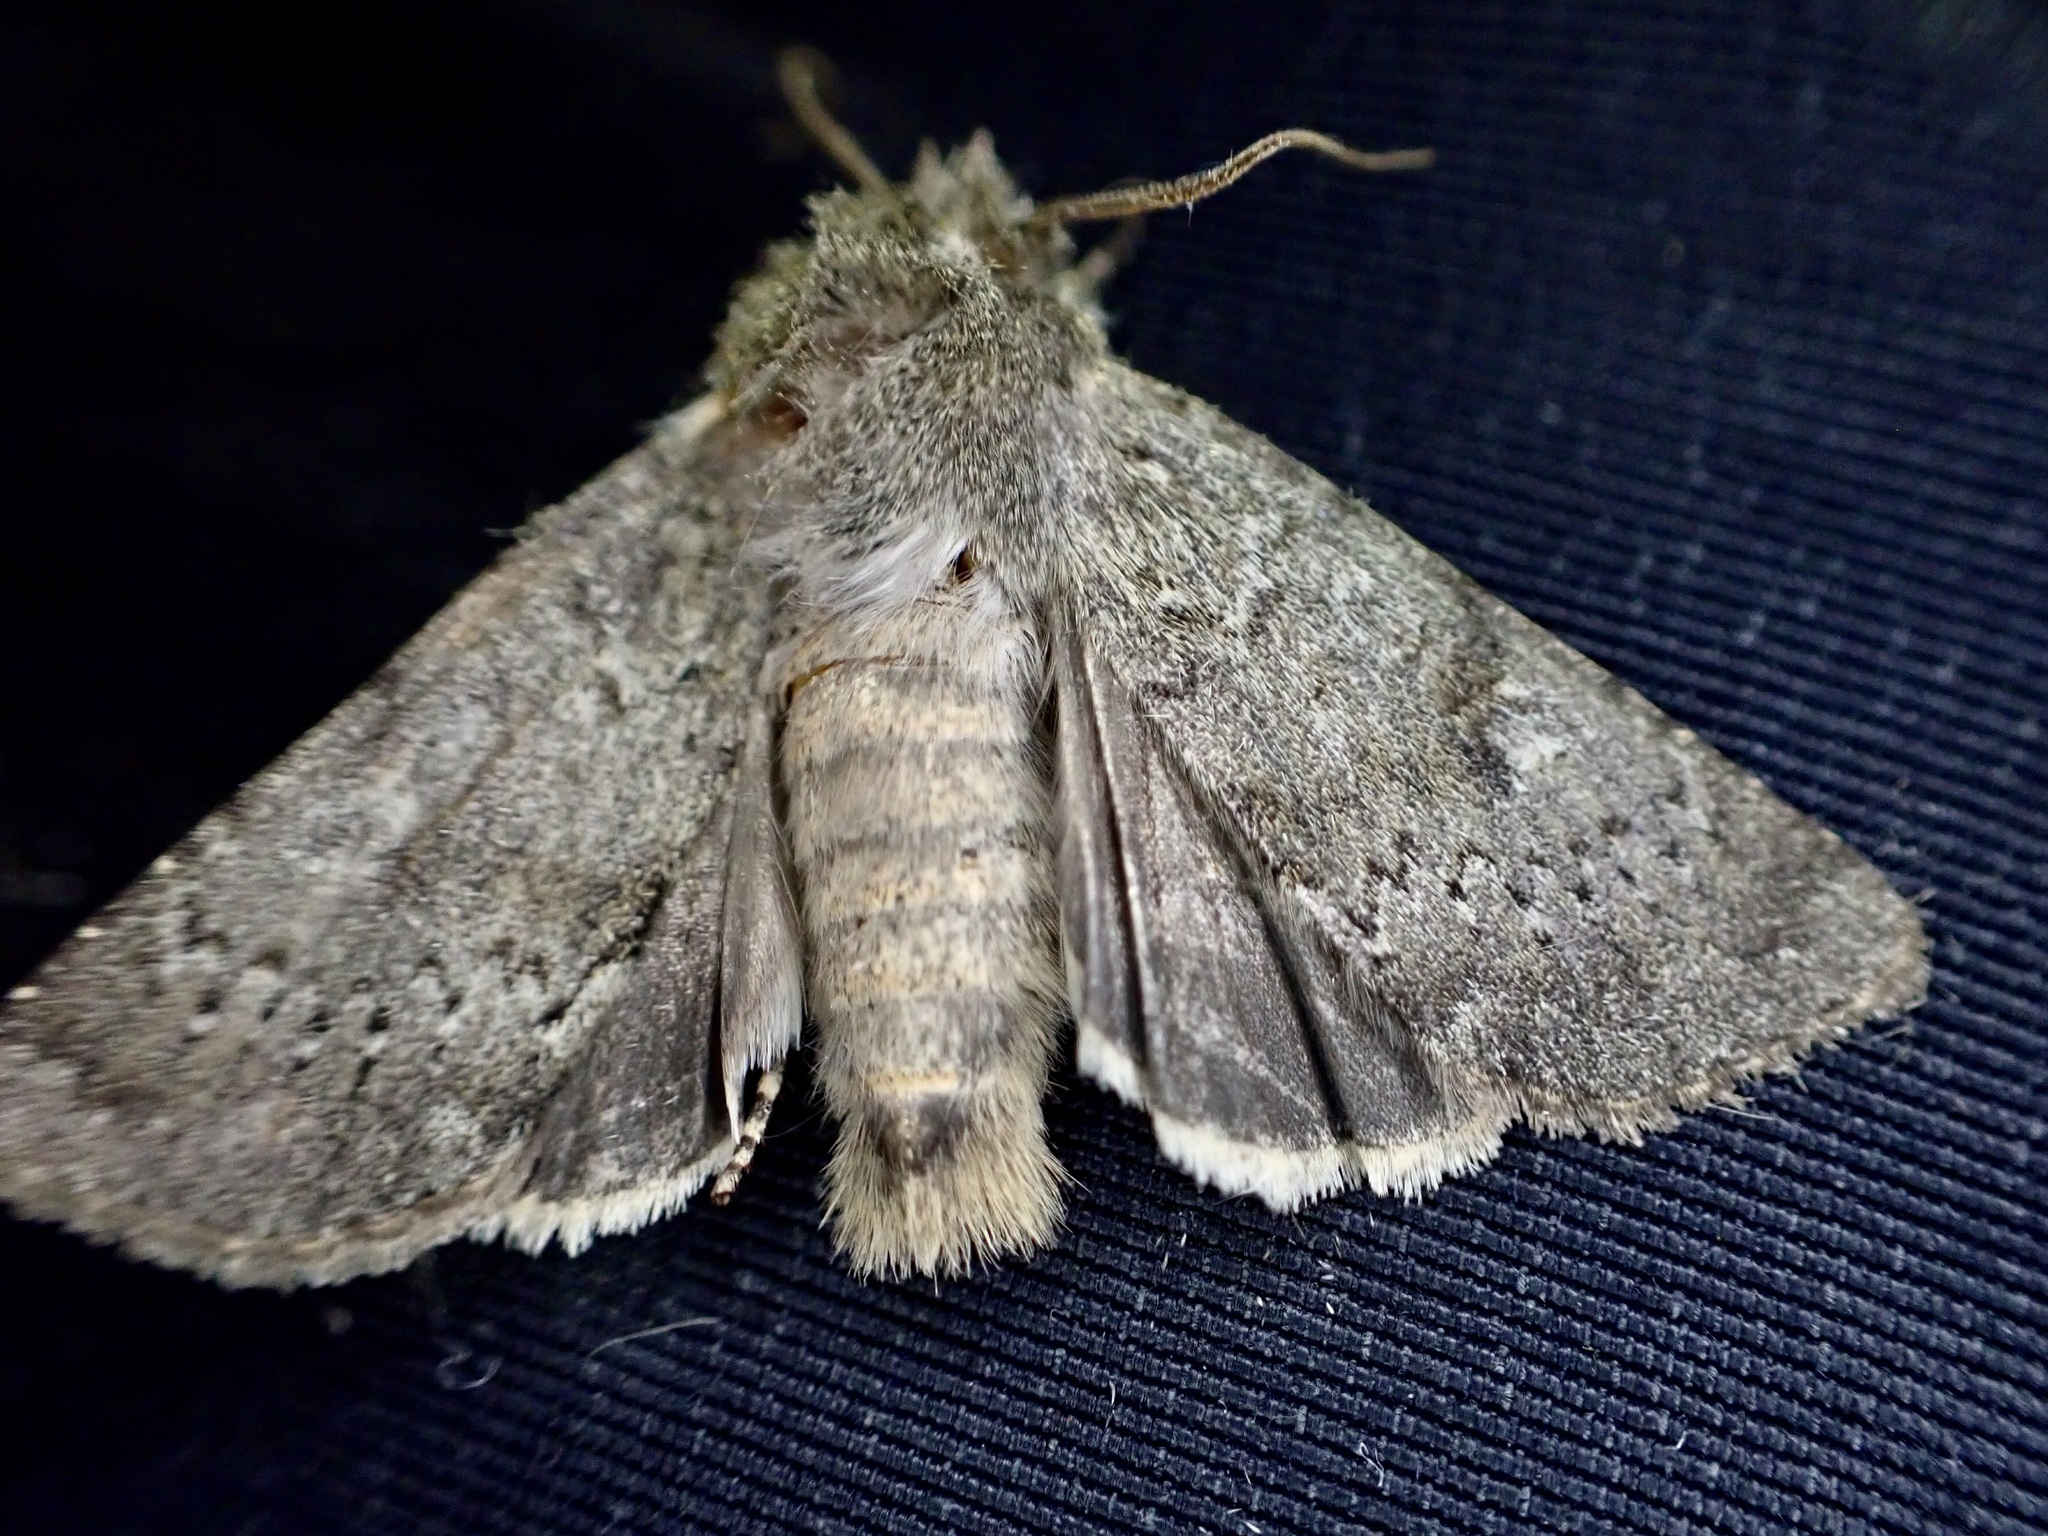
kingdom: Animalia
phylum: Arthropoda
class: Insecta
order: Lepidoptera
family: Noctuidae
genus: Ichneutica
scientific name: Ichneutica moderata
